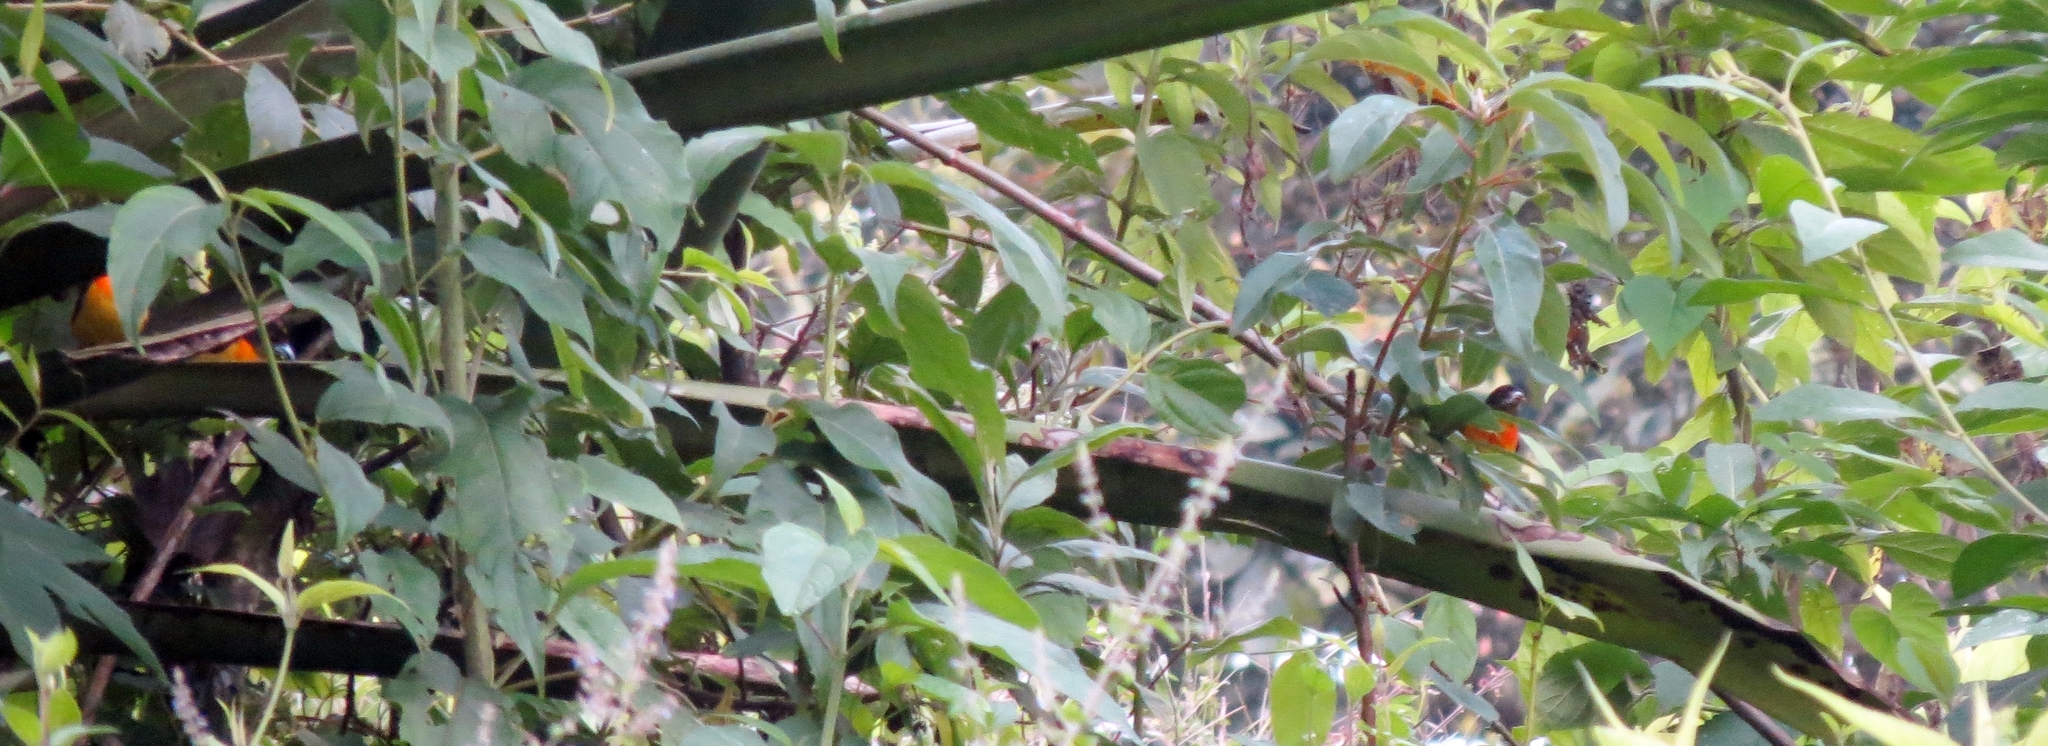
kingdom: Animalia
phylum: Chordata
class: Aves
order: Passeriformes
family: Thraupidae
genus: Ramphocelus
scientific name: Ramphocelus flammigerus
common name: Flame-rumped tanager
